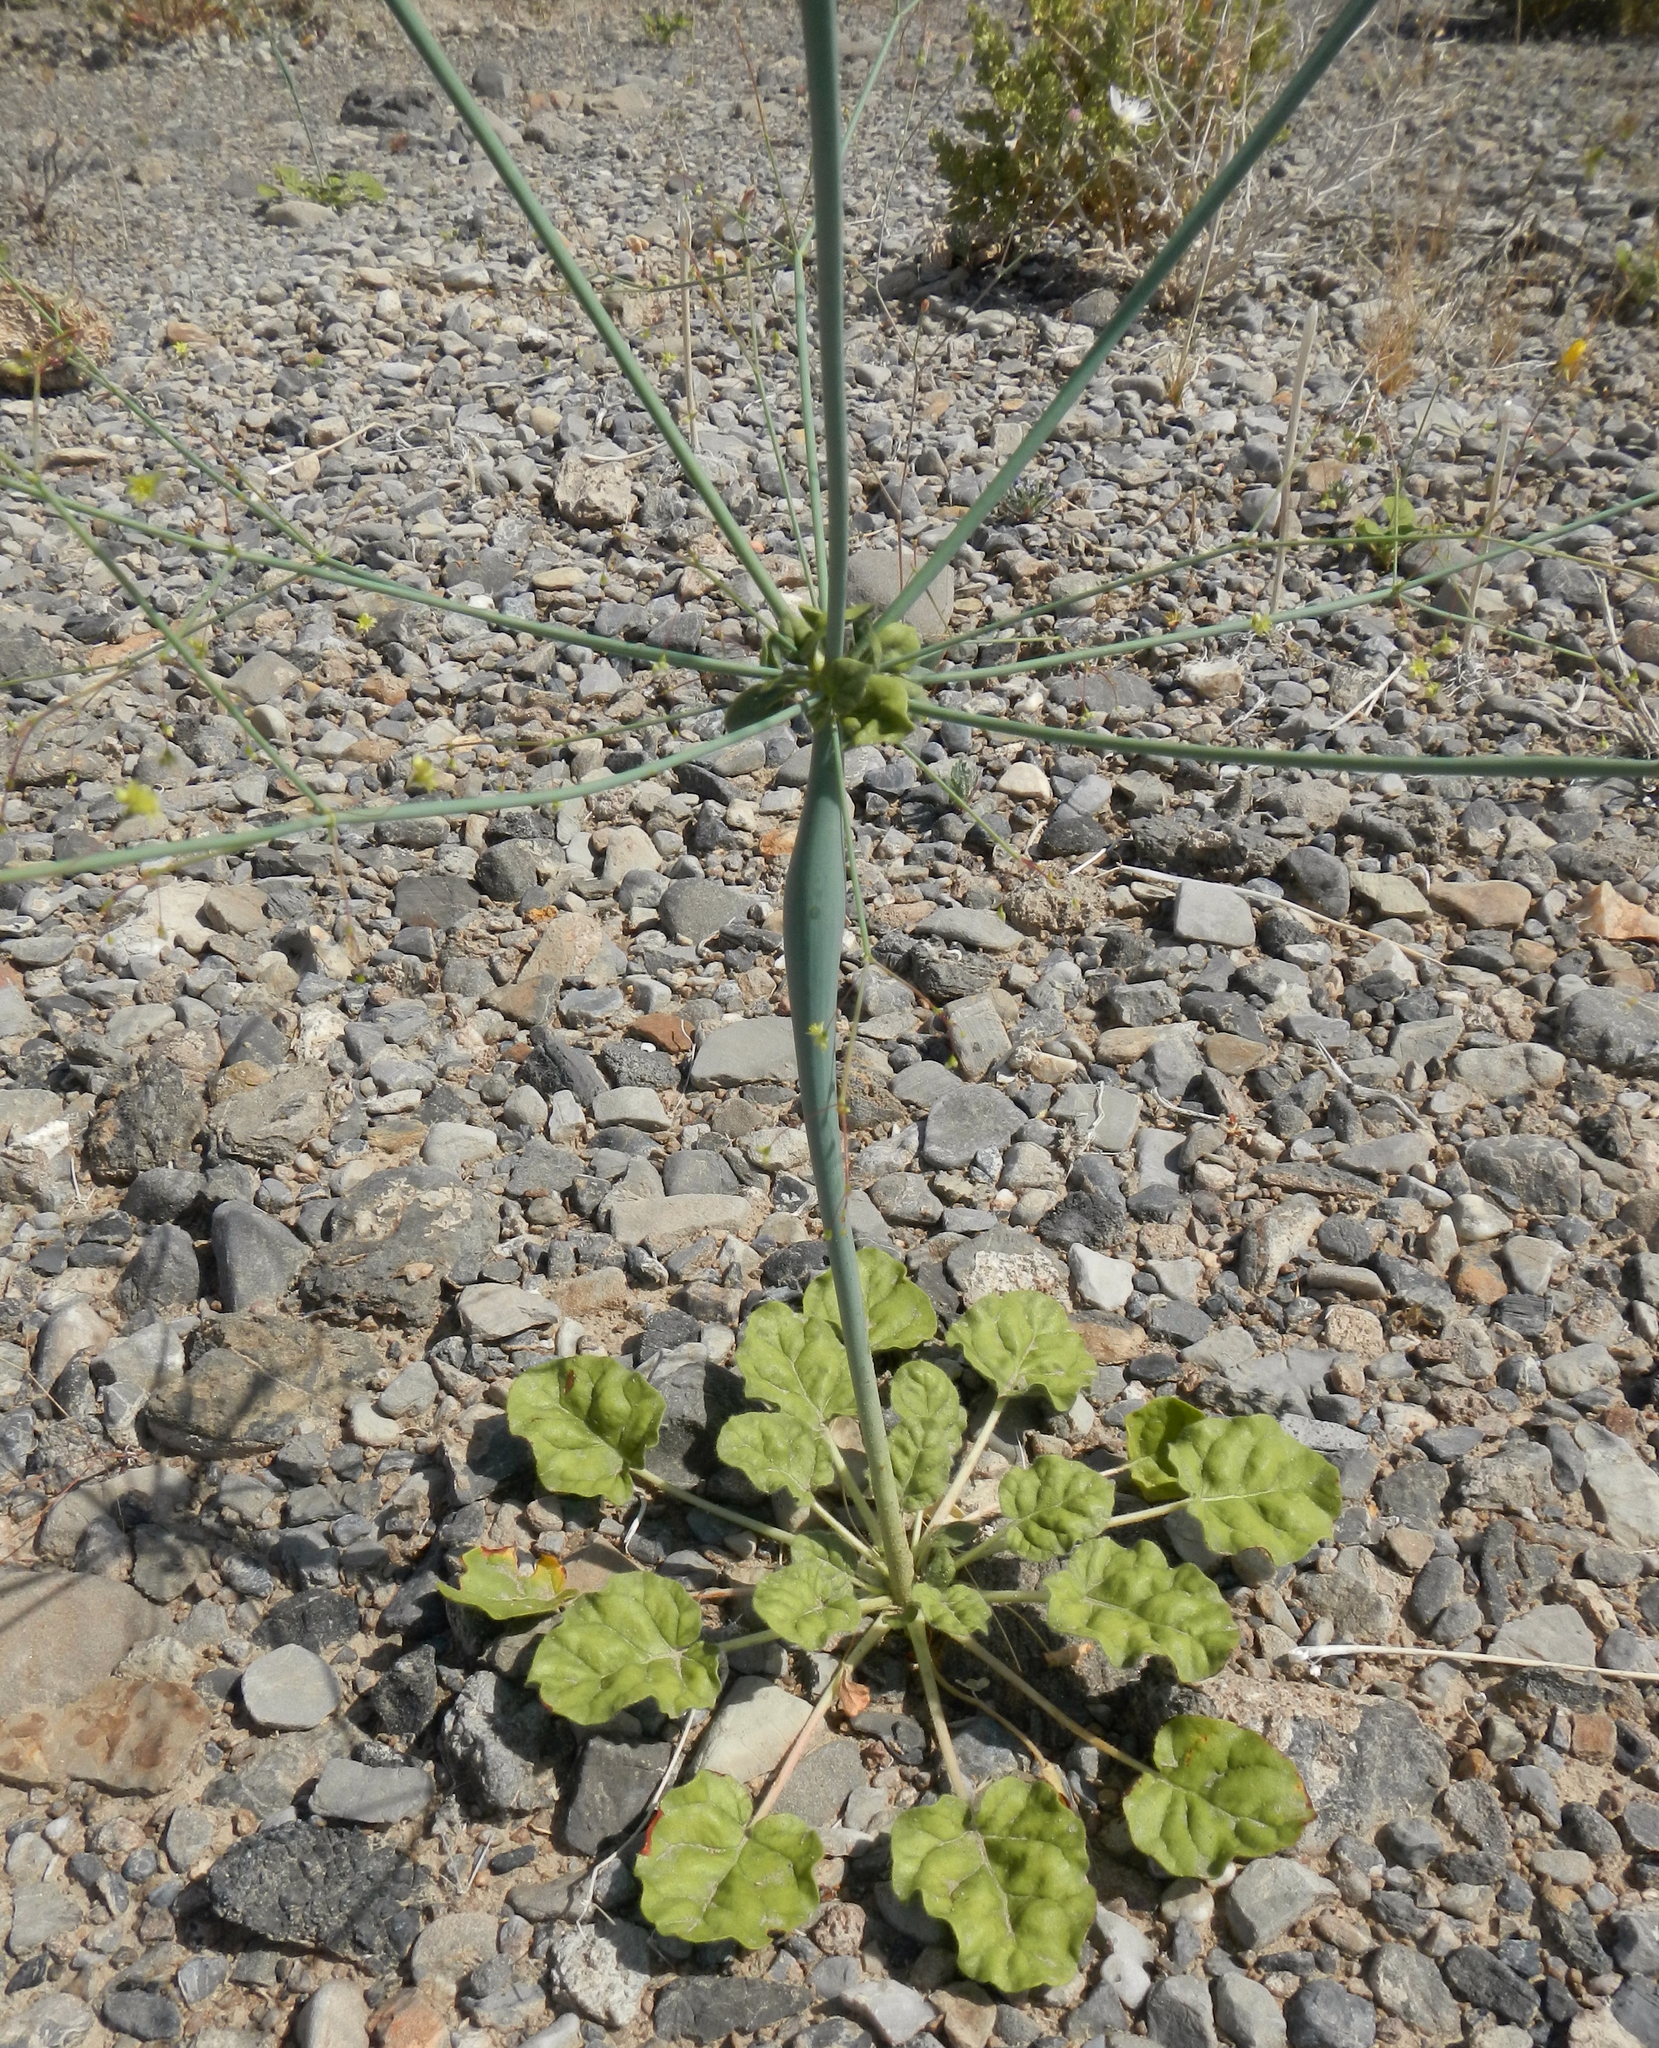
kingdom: Plantae
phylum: Tracheophyta
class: Magnoliopsida
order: Caryophyllales
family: Polygonaceae
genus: Eriogonum
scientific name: Eriogonum inflatum
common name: Desert trumpet
